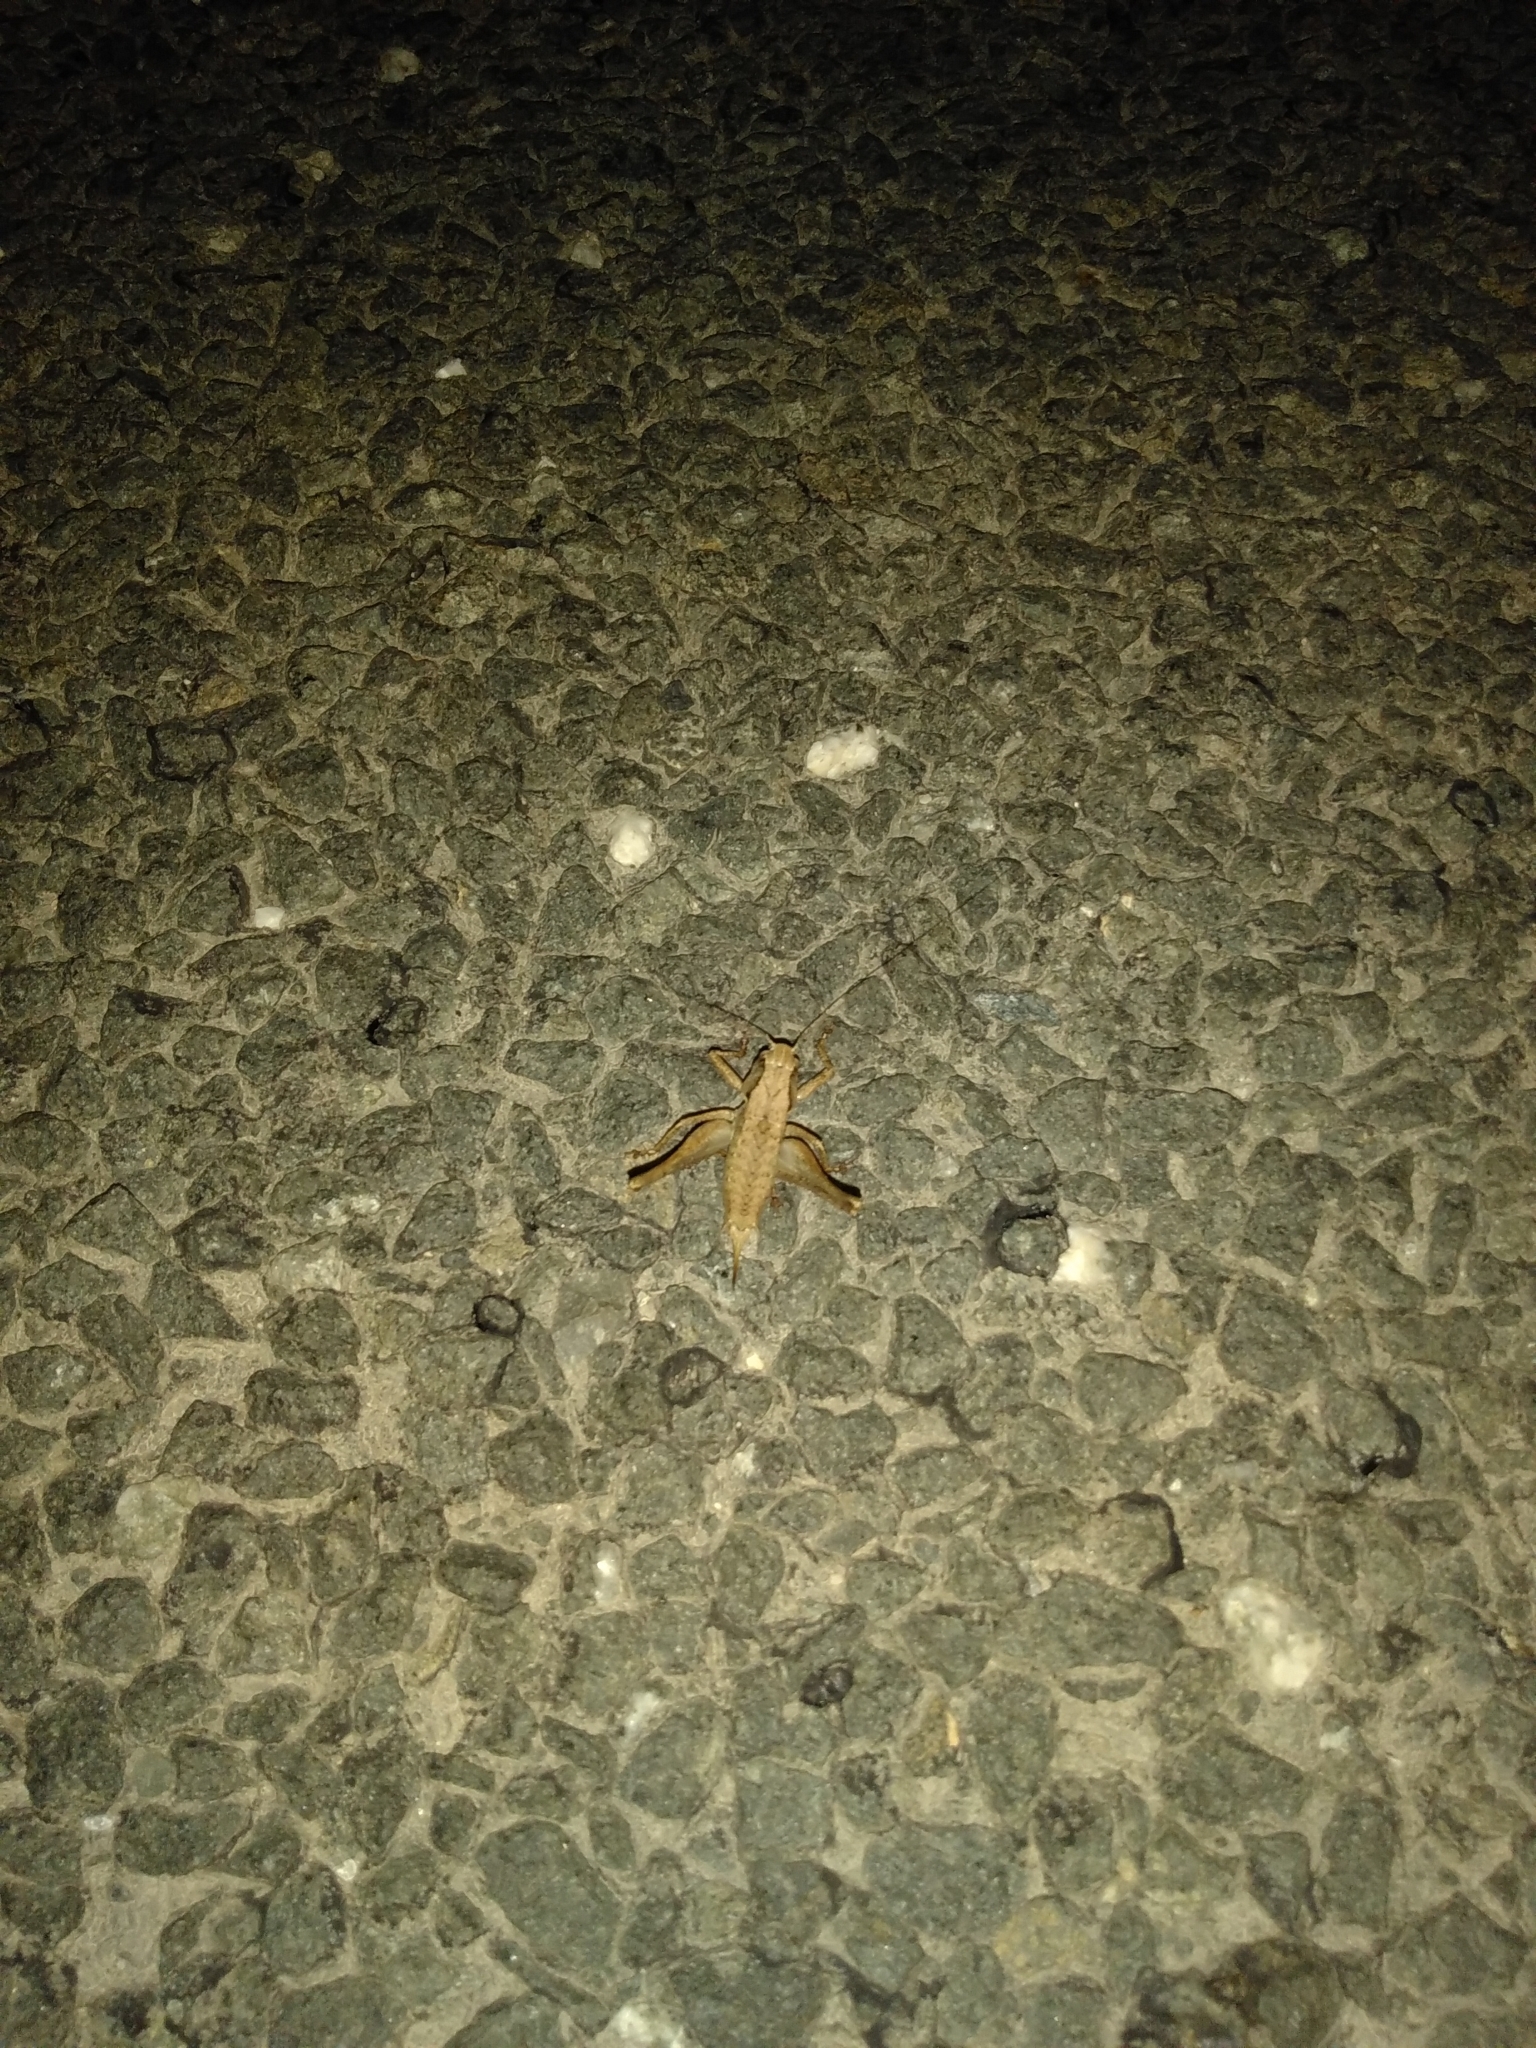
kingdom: Animalia
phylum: Arthropoda
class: Insecta
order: Orthoptera
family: Tettigoniidae
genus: Pholidoptera
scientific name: Pholidoptera griseoaptera
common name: Dark bush-cricket
